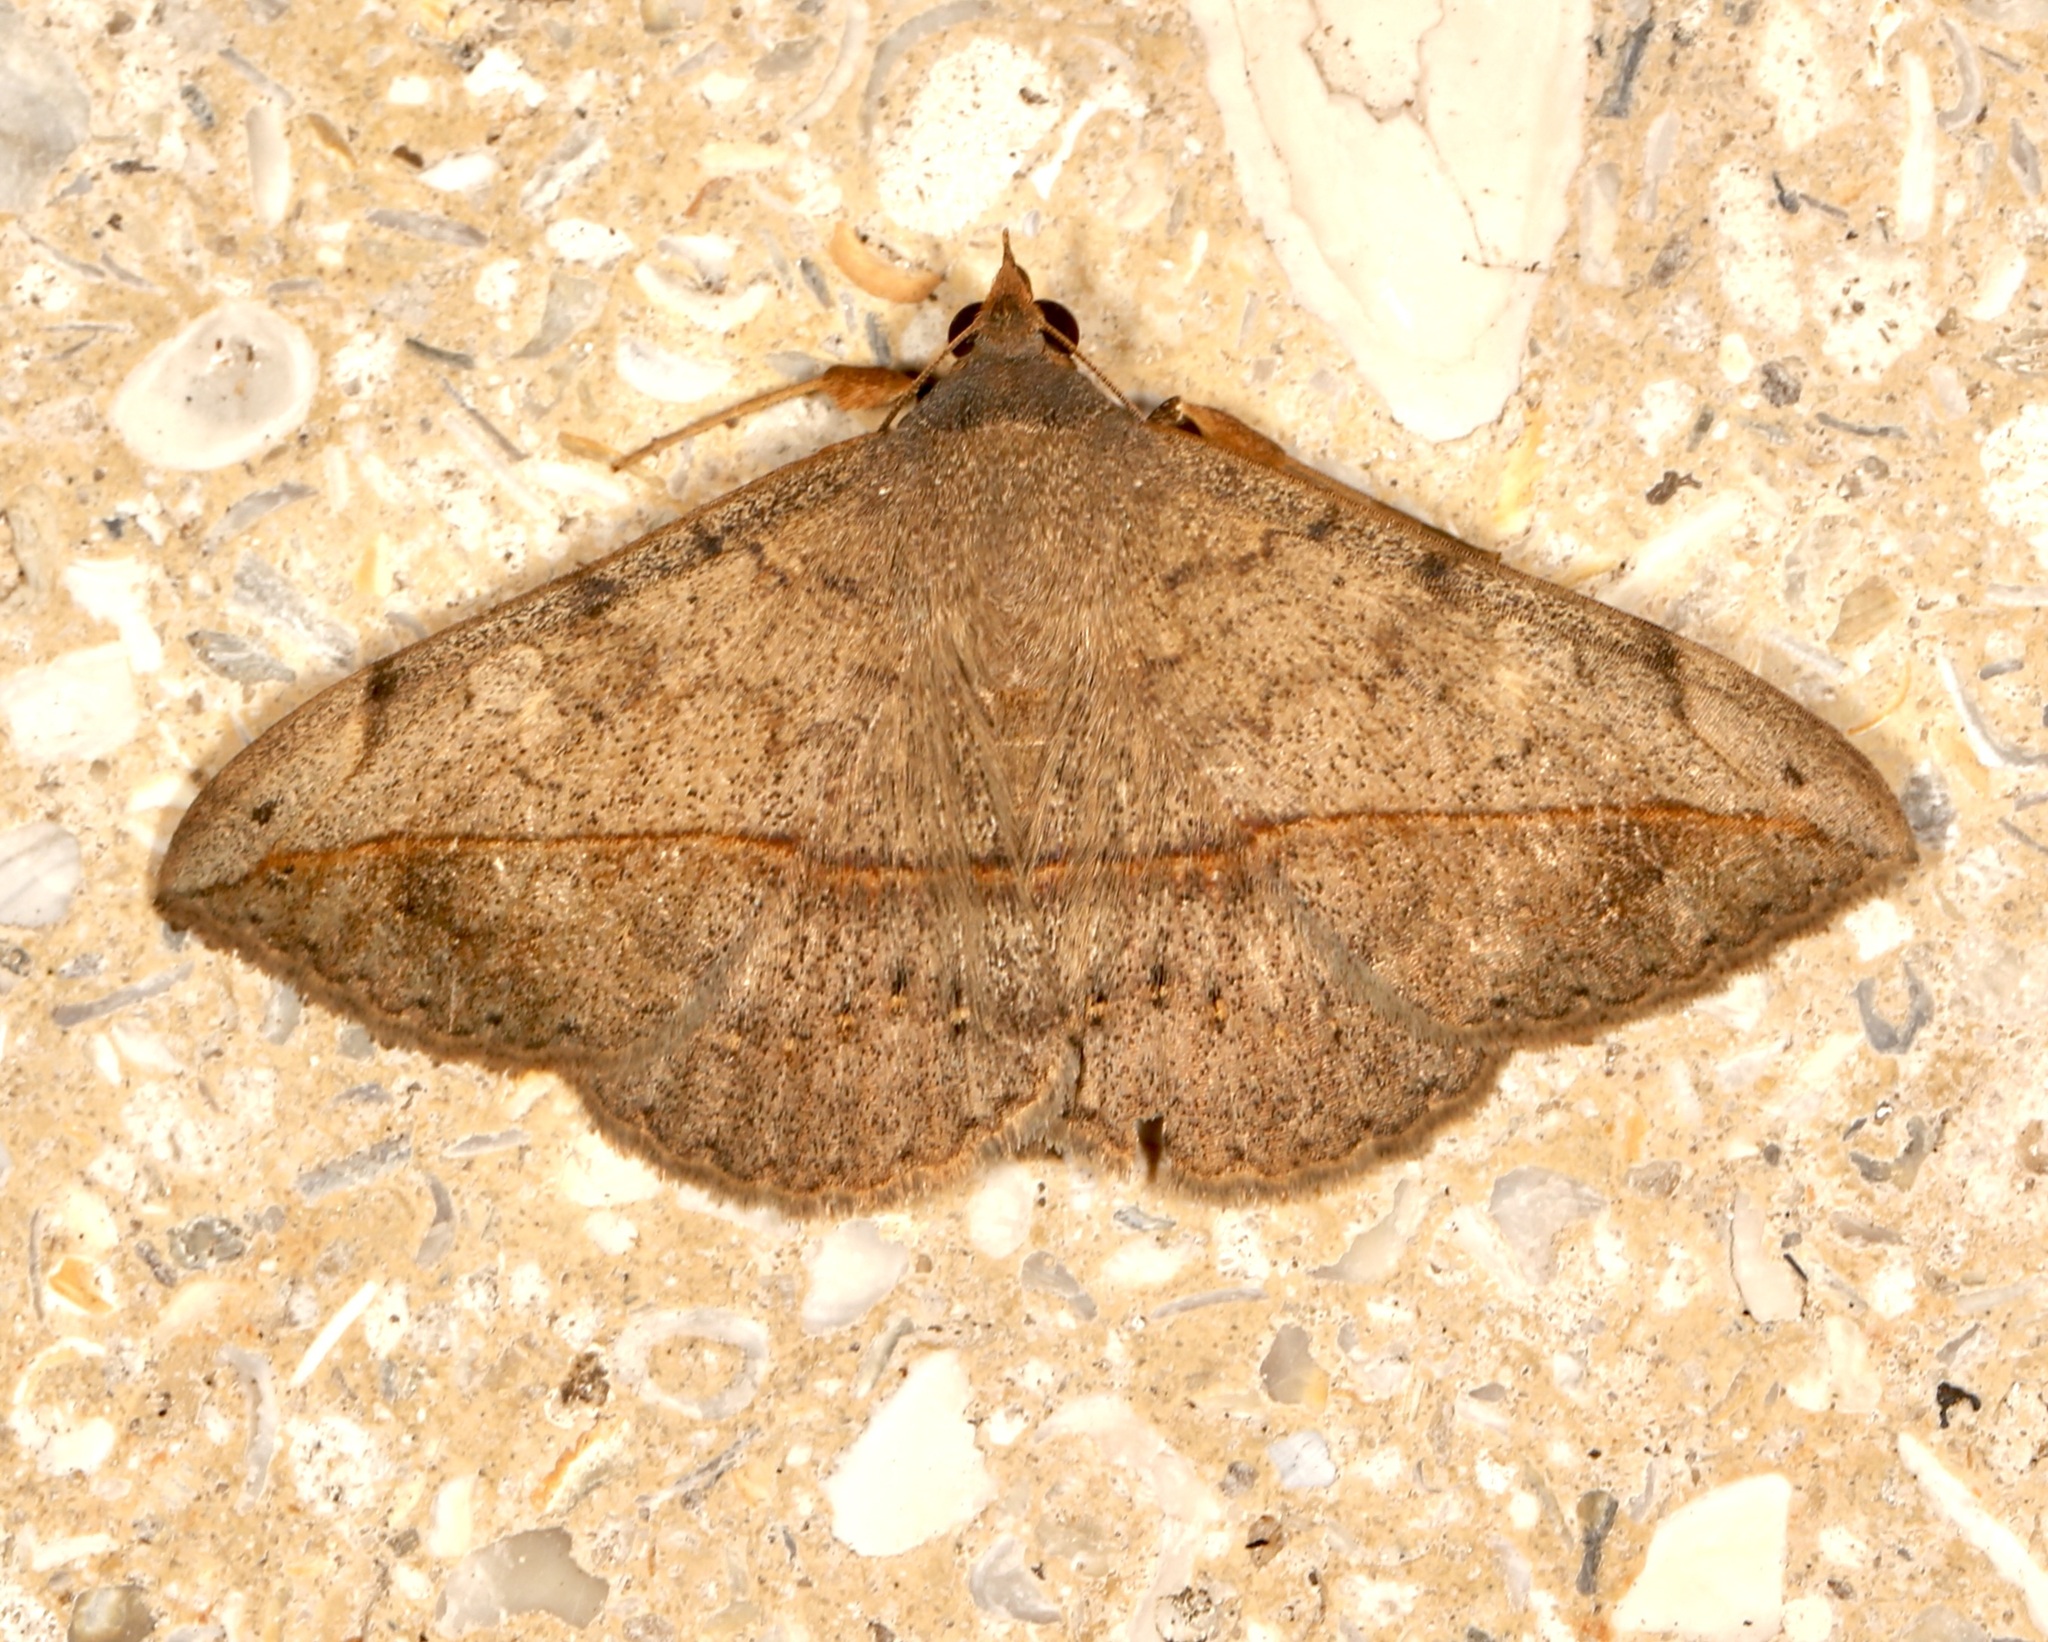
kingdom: Animalia
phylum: Arthropoda
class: Insecta
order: Lepidoptera
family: Erebidae
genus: Anticarsia
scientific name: Anticarsia gemmatalis
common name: Cutworm moth
